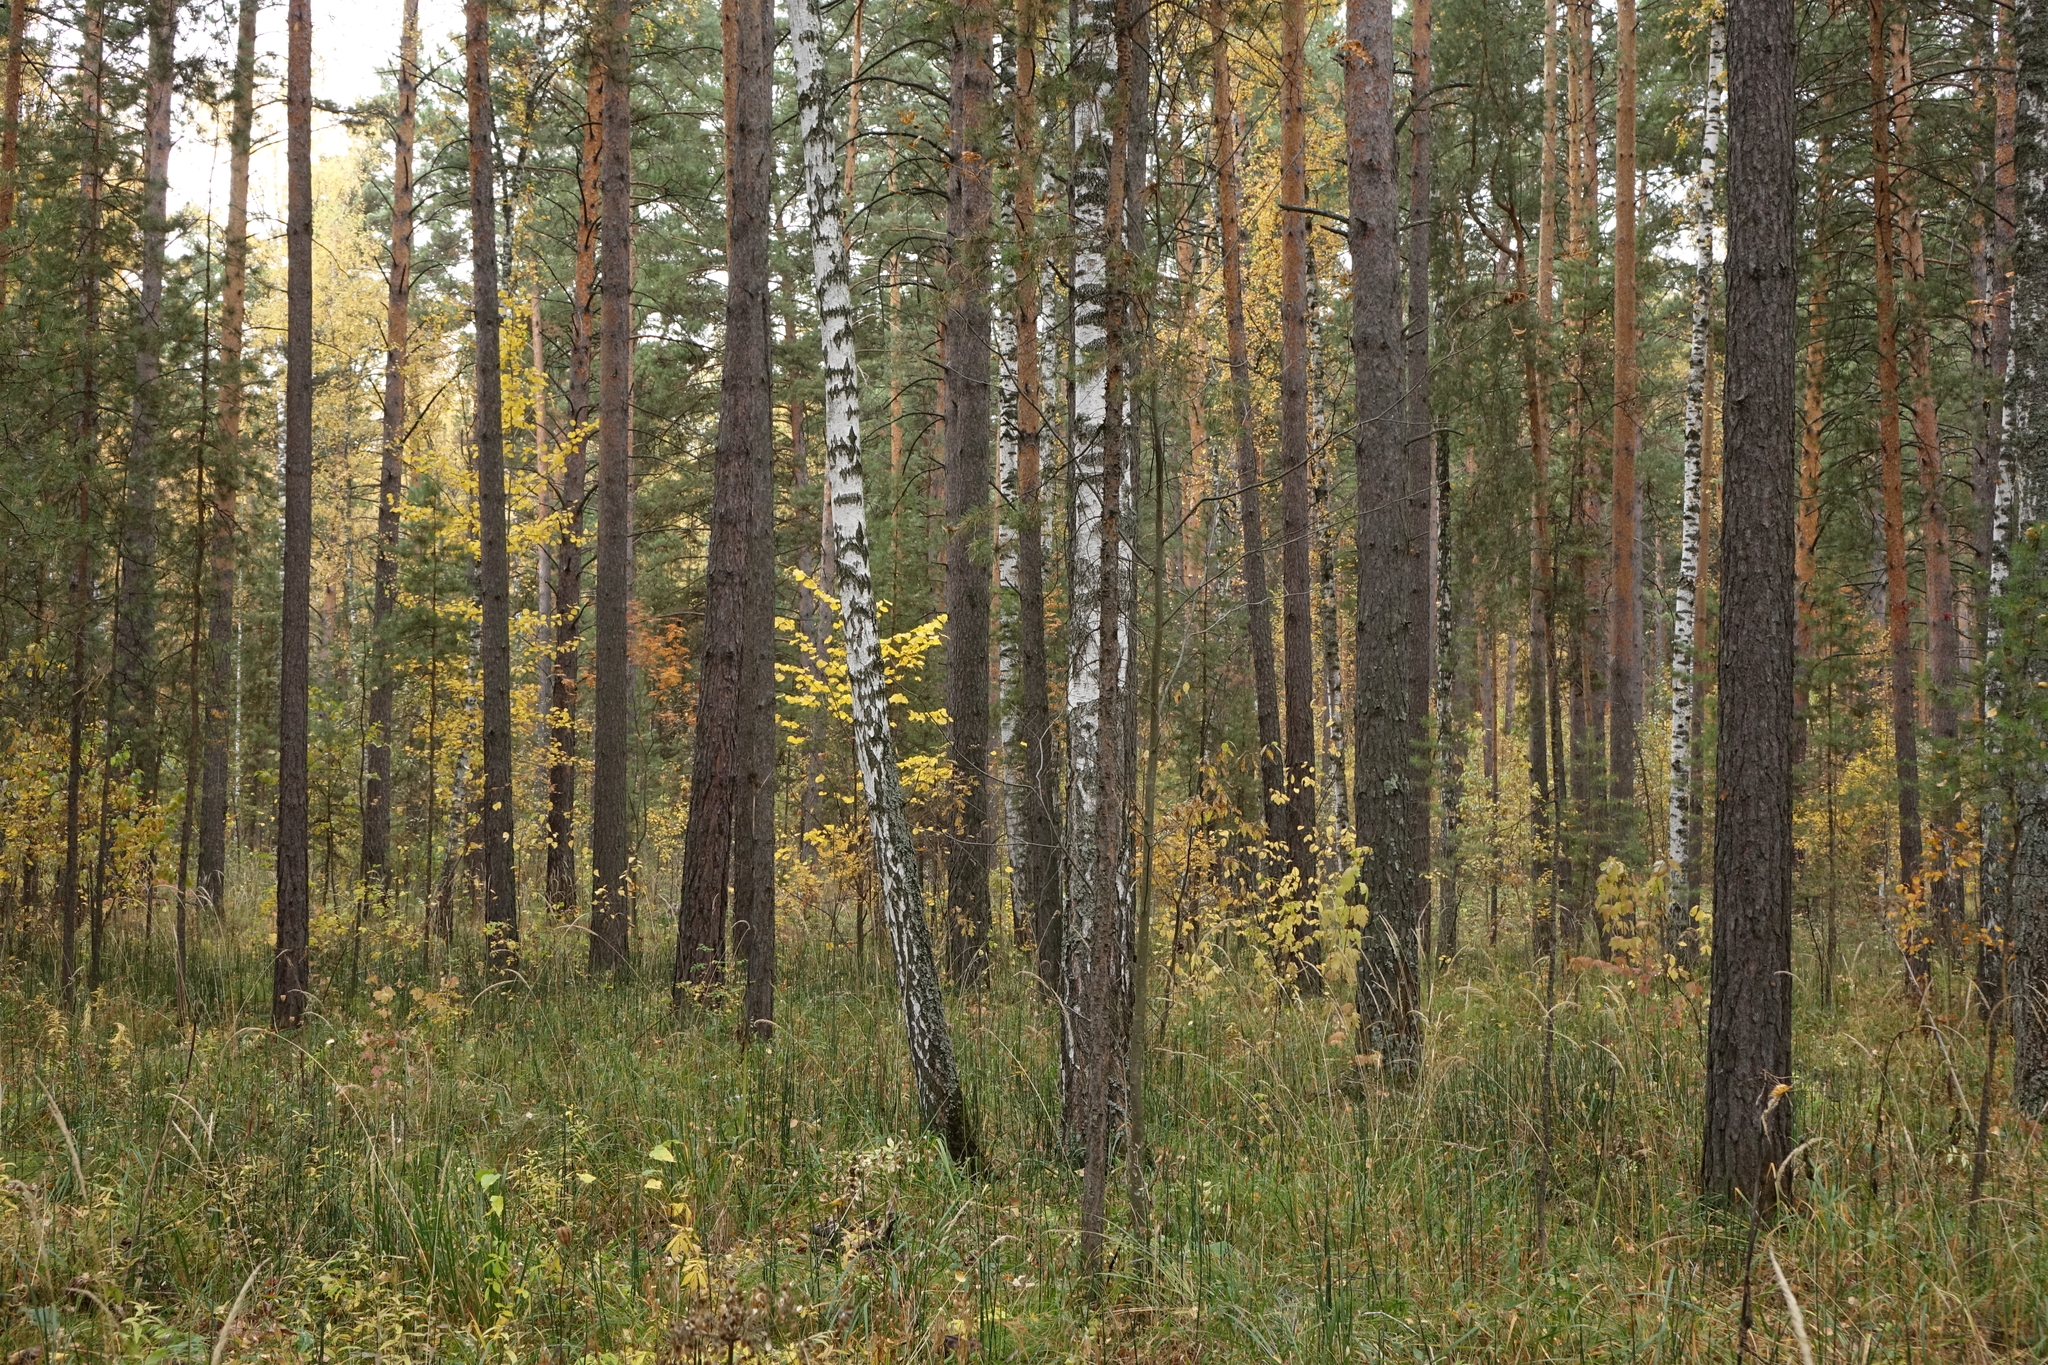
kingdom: Plantae
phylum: Tracheophyta
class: Pinopsida
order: Pinales
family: Pinaceae
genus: Pinus
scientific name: Pinus sylvestris
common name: Scots pine
